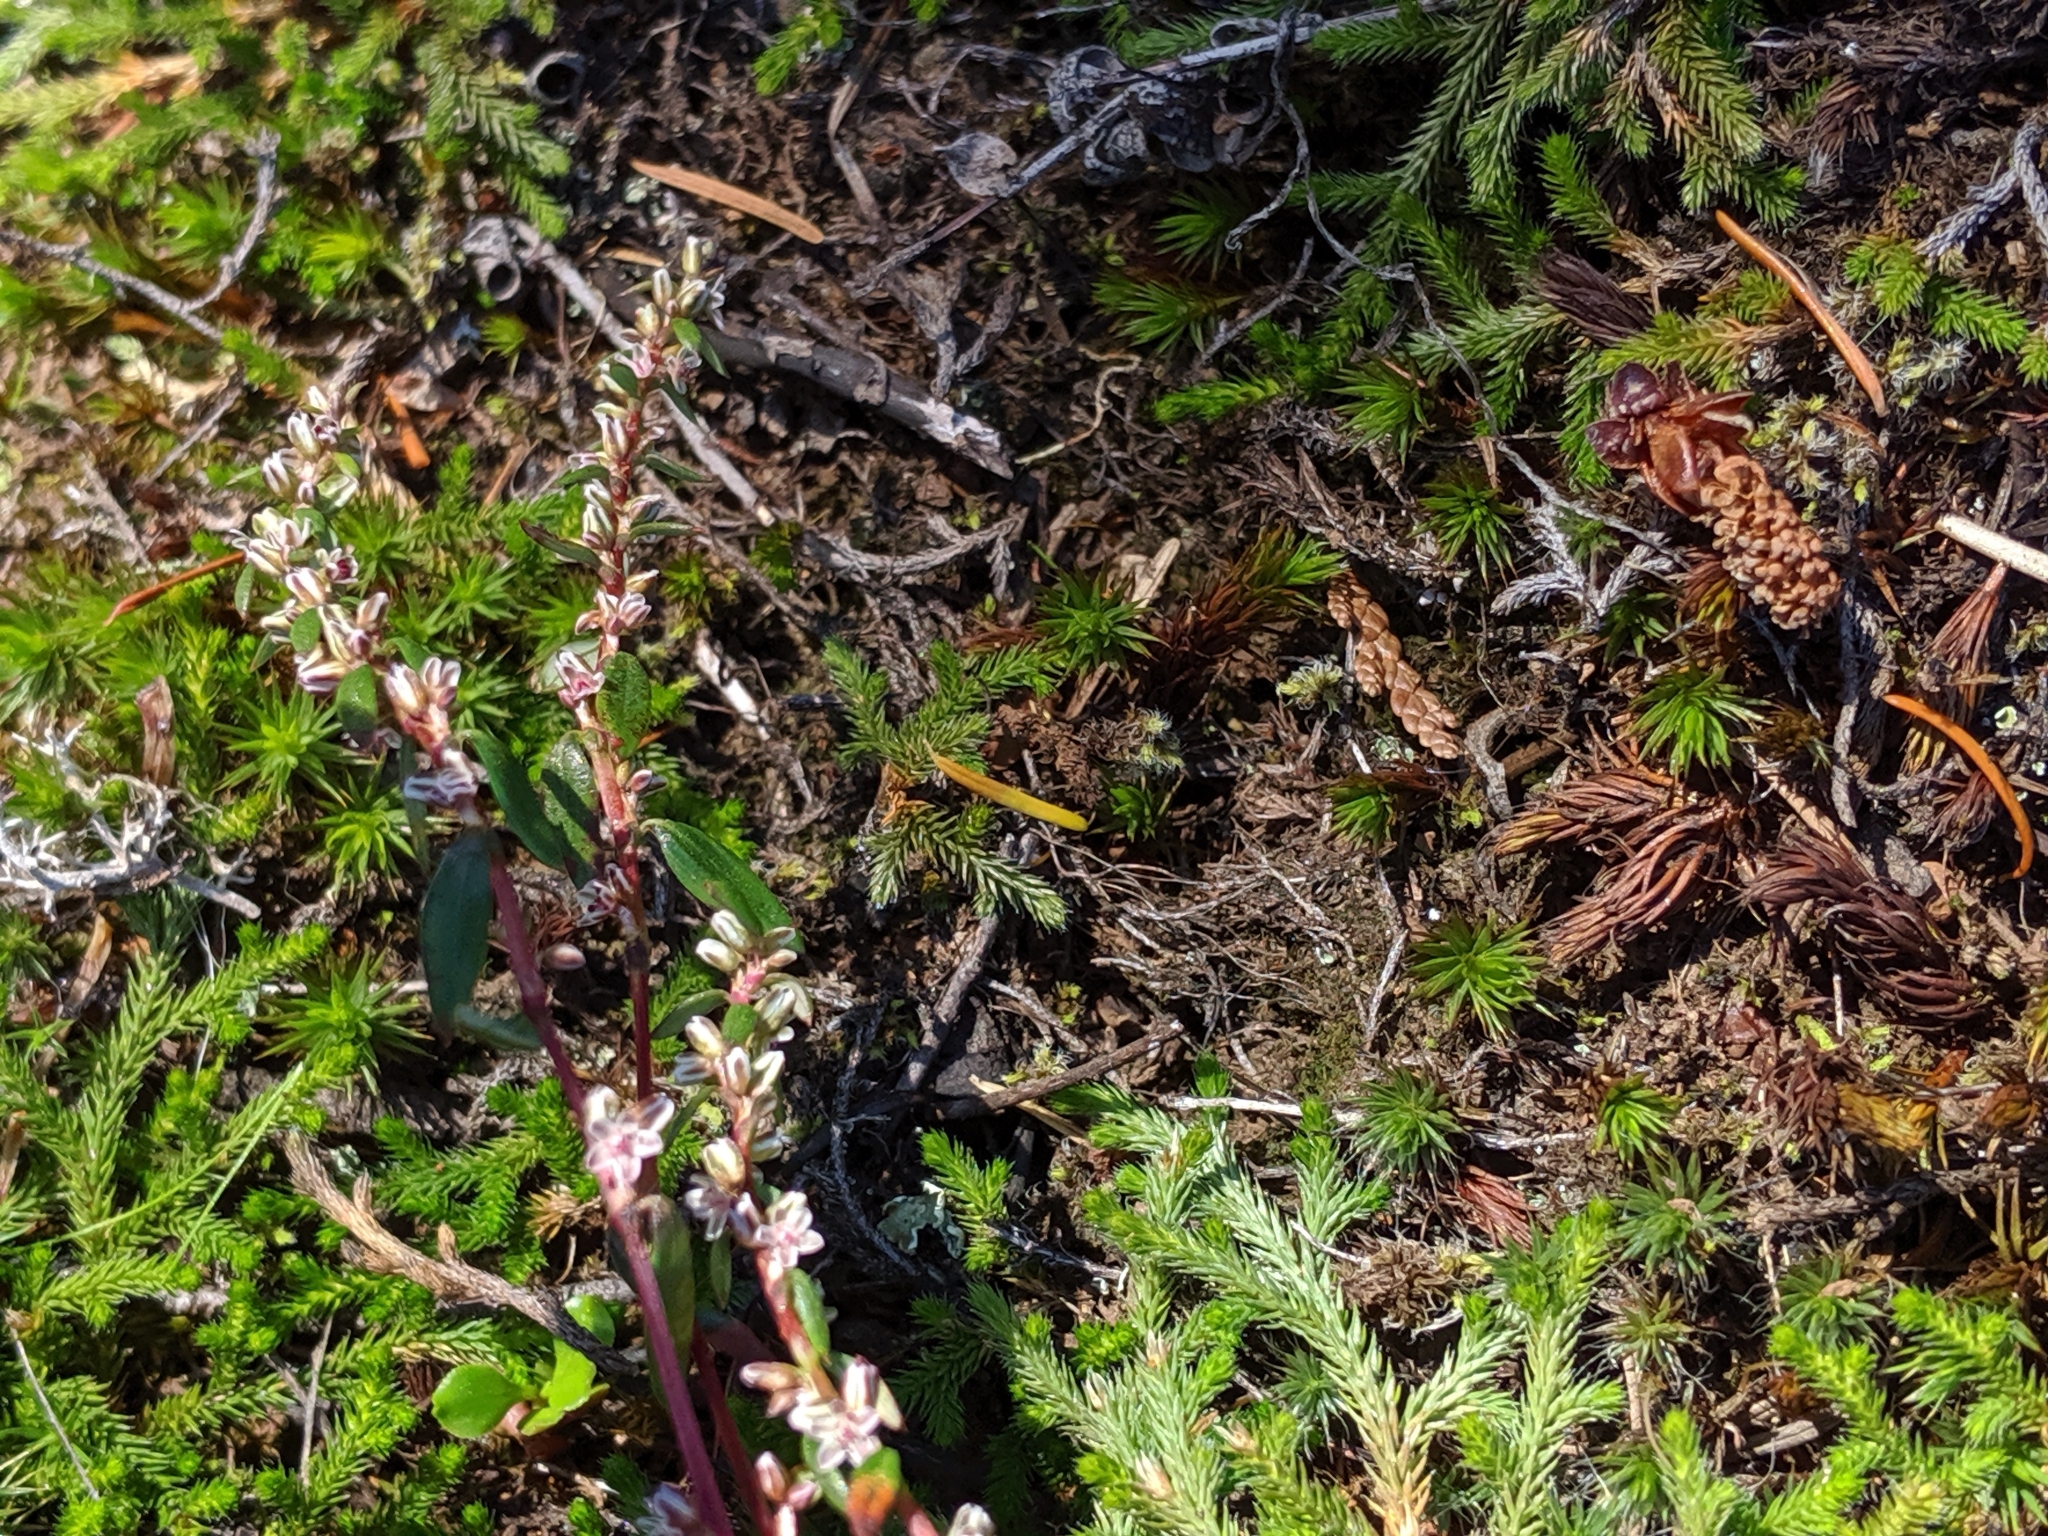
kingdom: Plantae
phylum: Tracheophyta
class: Lycopodiopsida
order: Selaginellales
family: Selaginellaceae
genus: Selaginella
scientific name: Selaginella wallacei
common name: Wallace's selaginella
